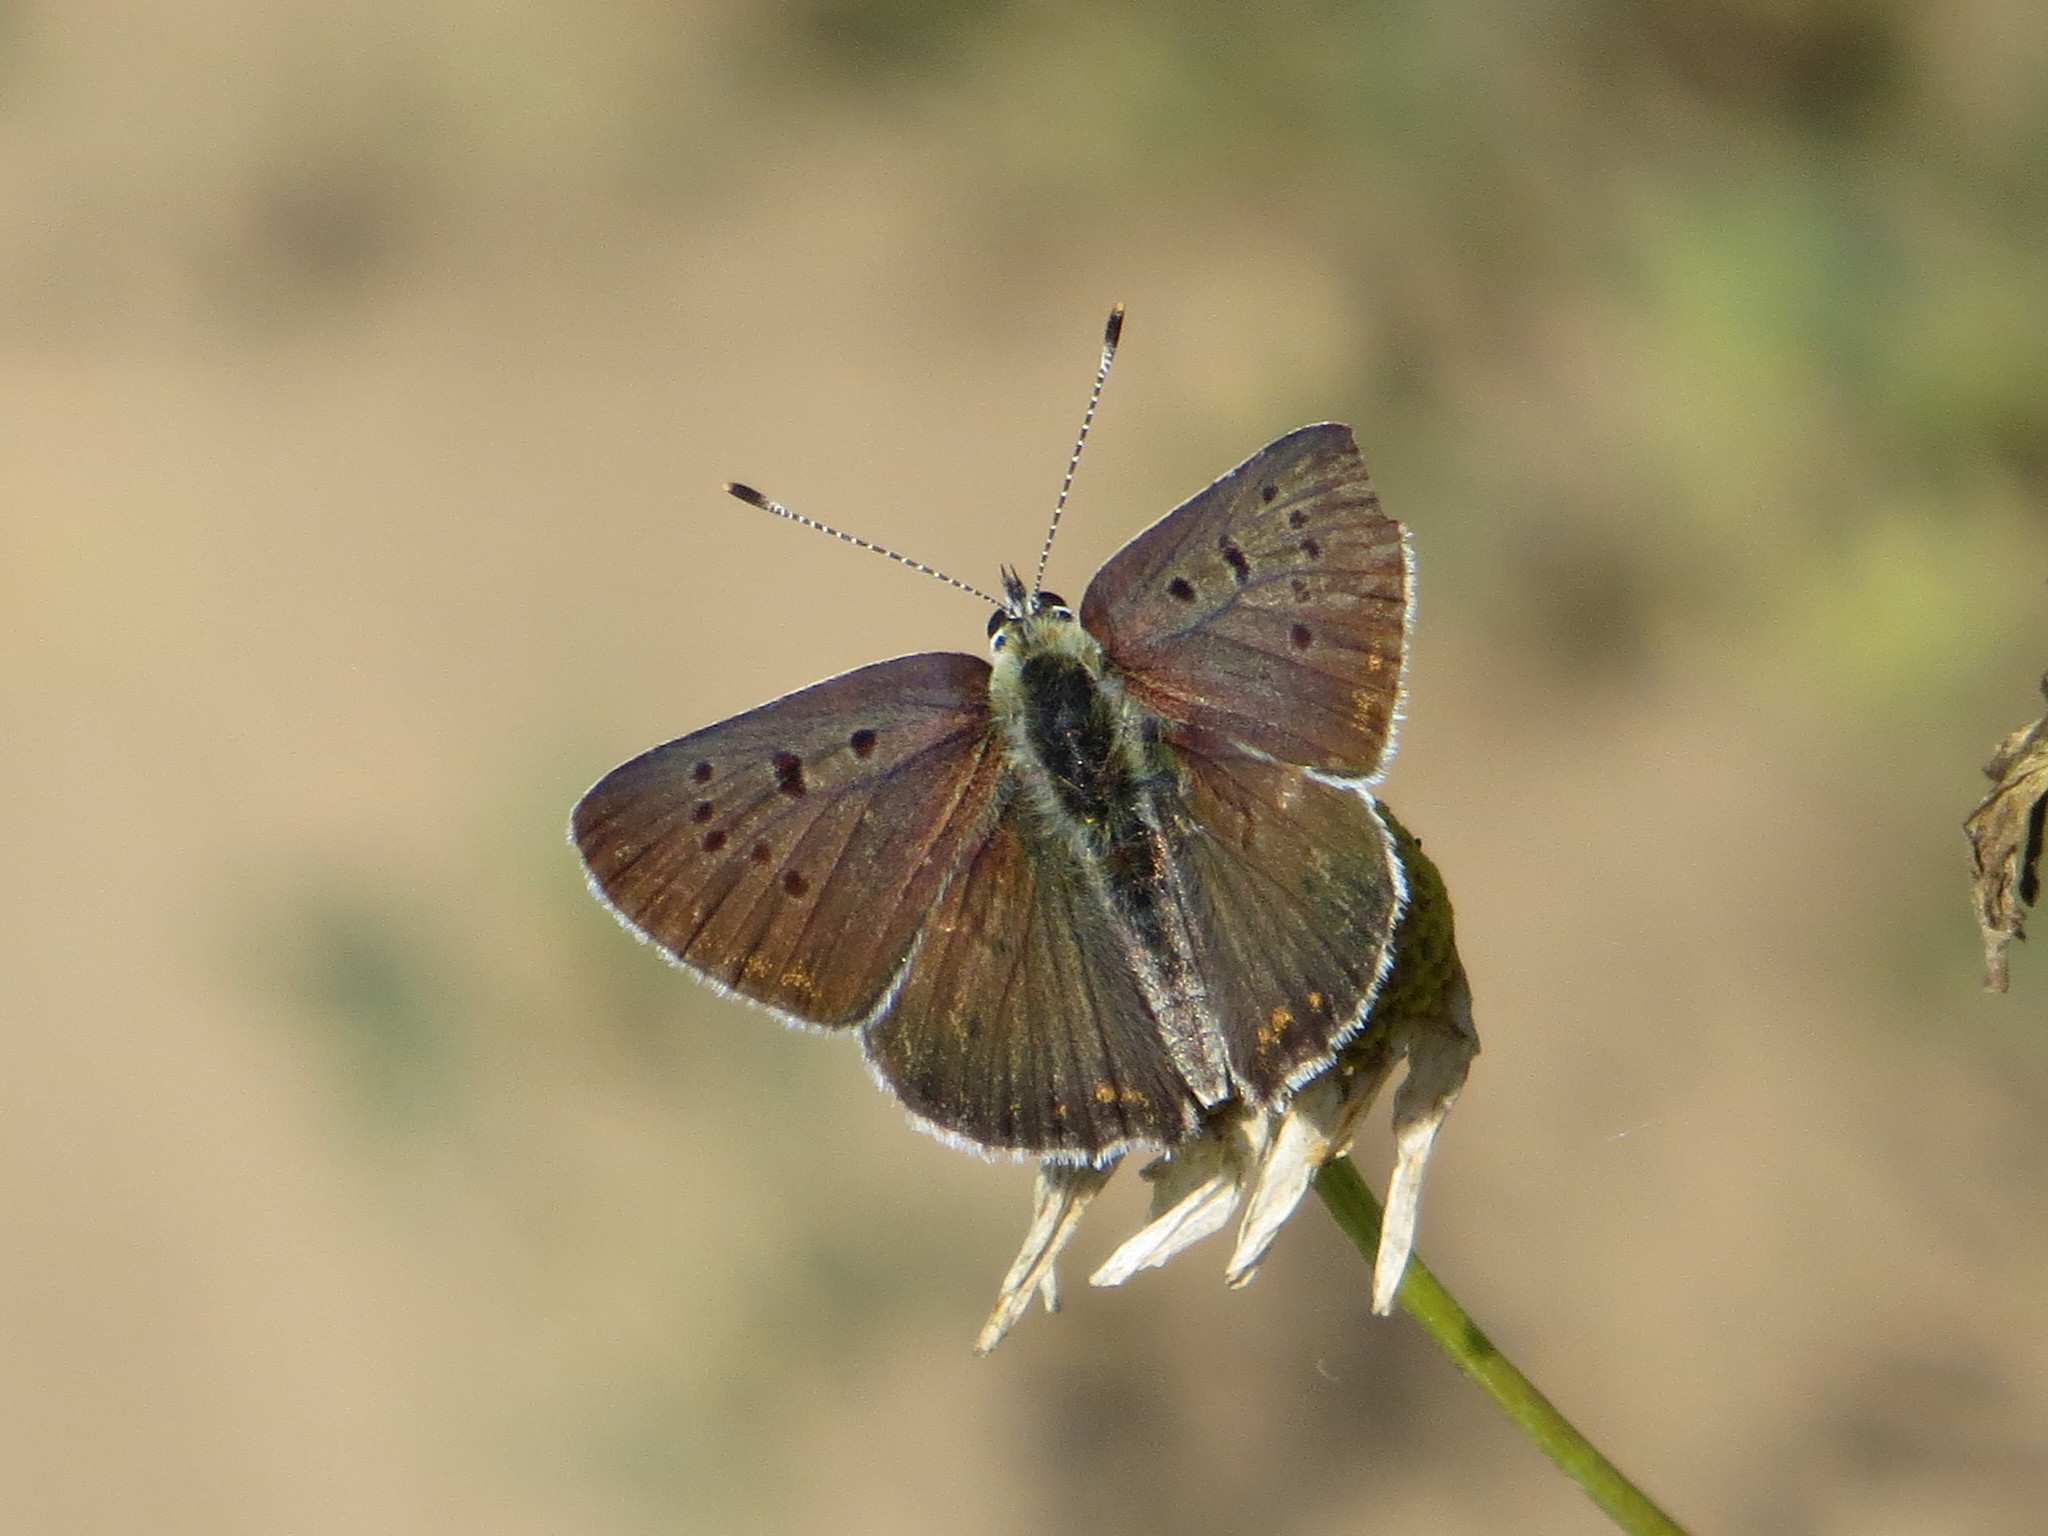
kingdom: Animalia
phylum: Arthropoda
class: Insecta
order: Lepidoptera
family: Lycaenidae
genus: Loweia
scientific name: Loweia tityrus
